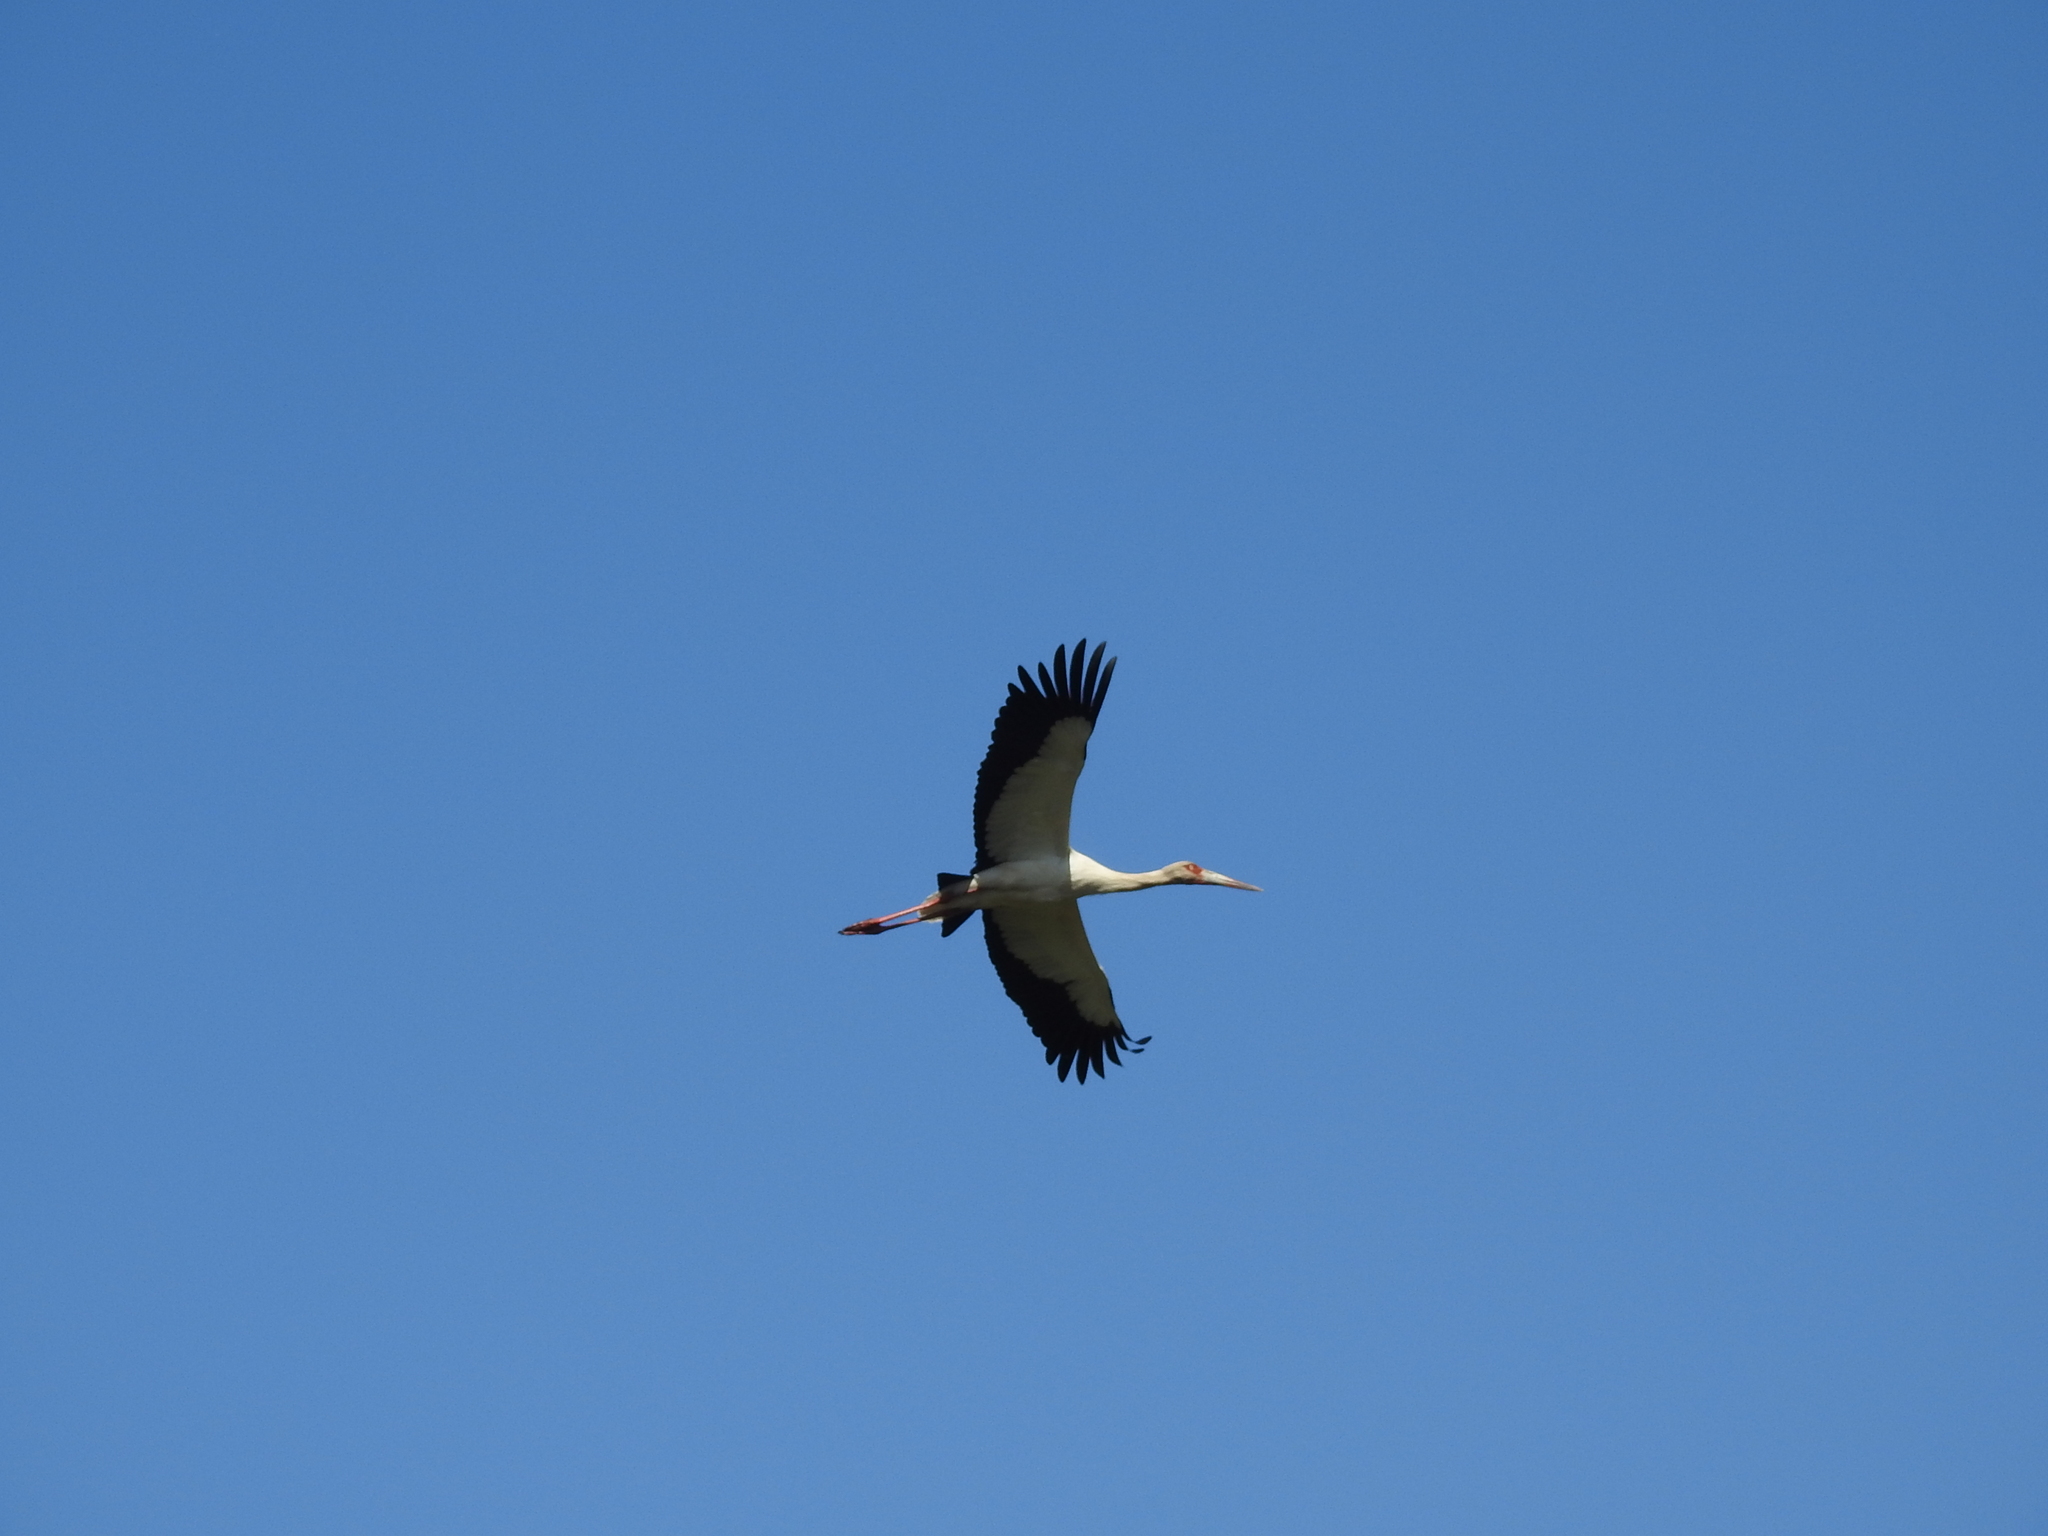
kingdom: Animalia
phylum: Chordata
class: Aves
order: Ciconiiformes
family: Ciconiidae
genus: Ciconia
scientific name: Ciconia maguari
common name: Maguari stork
